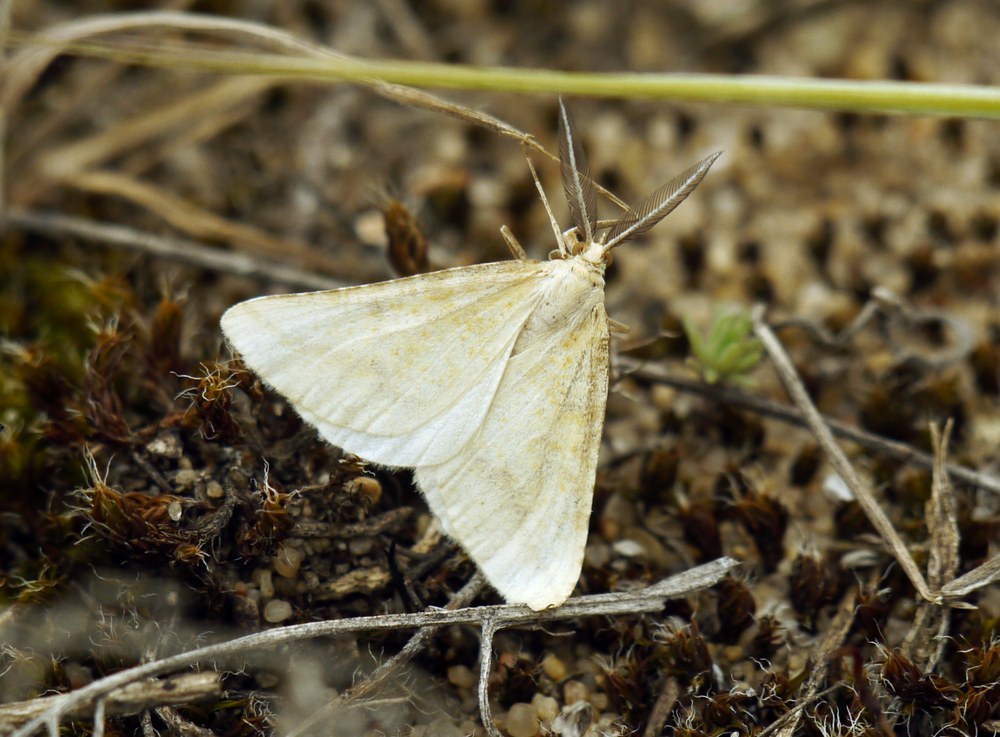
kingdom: Animalia
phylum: Arthropoda
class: Insecta
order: Lepidoptera
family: Geometridae
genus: Aspitates
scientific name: Aspitates ochrearia
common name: Yellow belle
